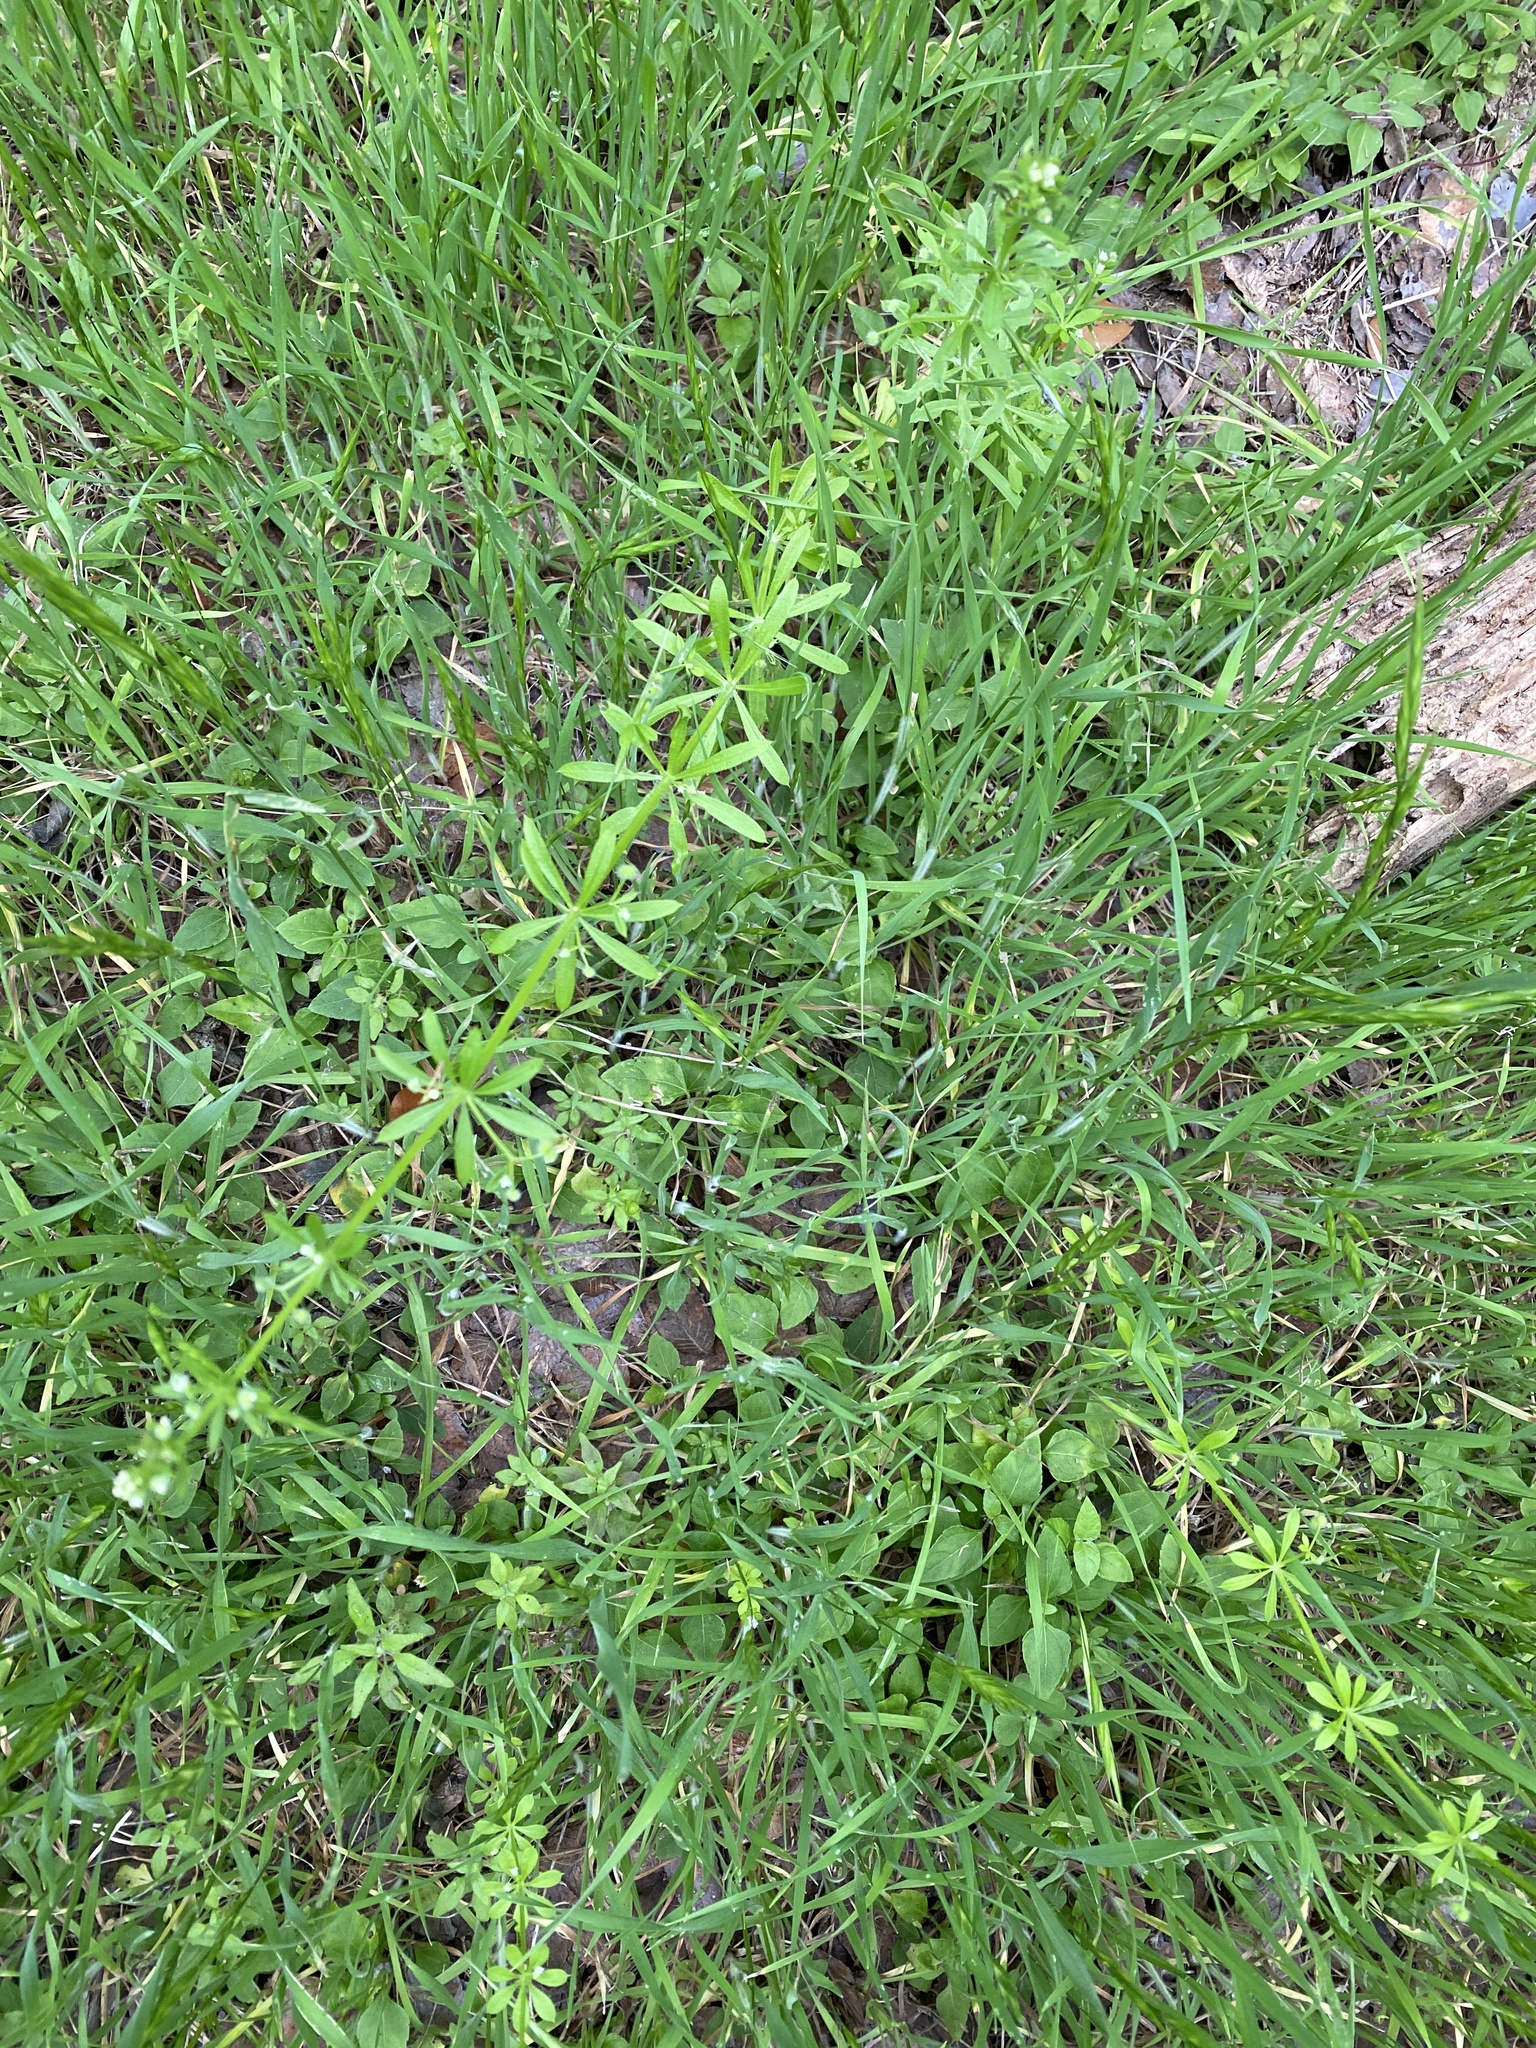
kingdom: Plantae
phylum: Tracheophyta
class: Magnoliopsida
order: Gentianales
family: Rubiaceae
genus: Galium
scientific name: Galium aparine
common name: Cleavers
